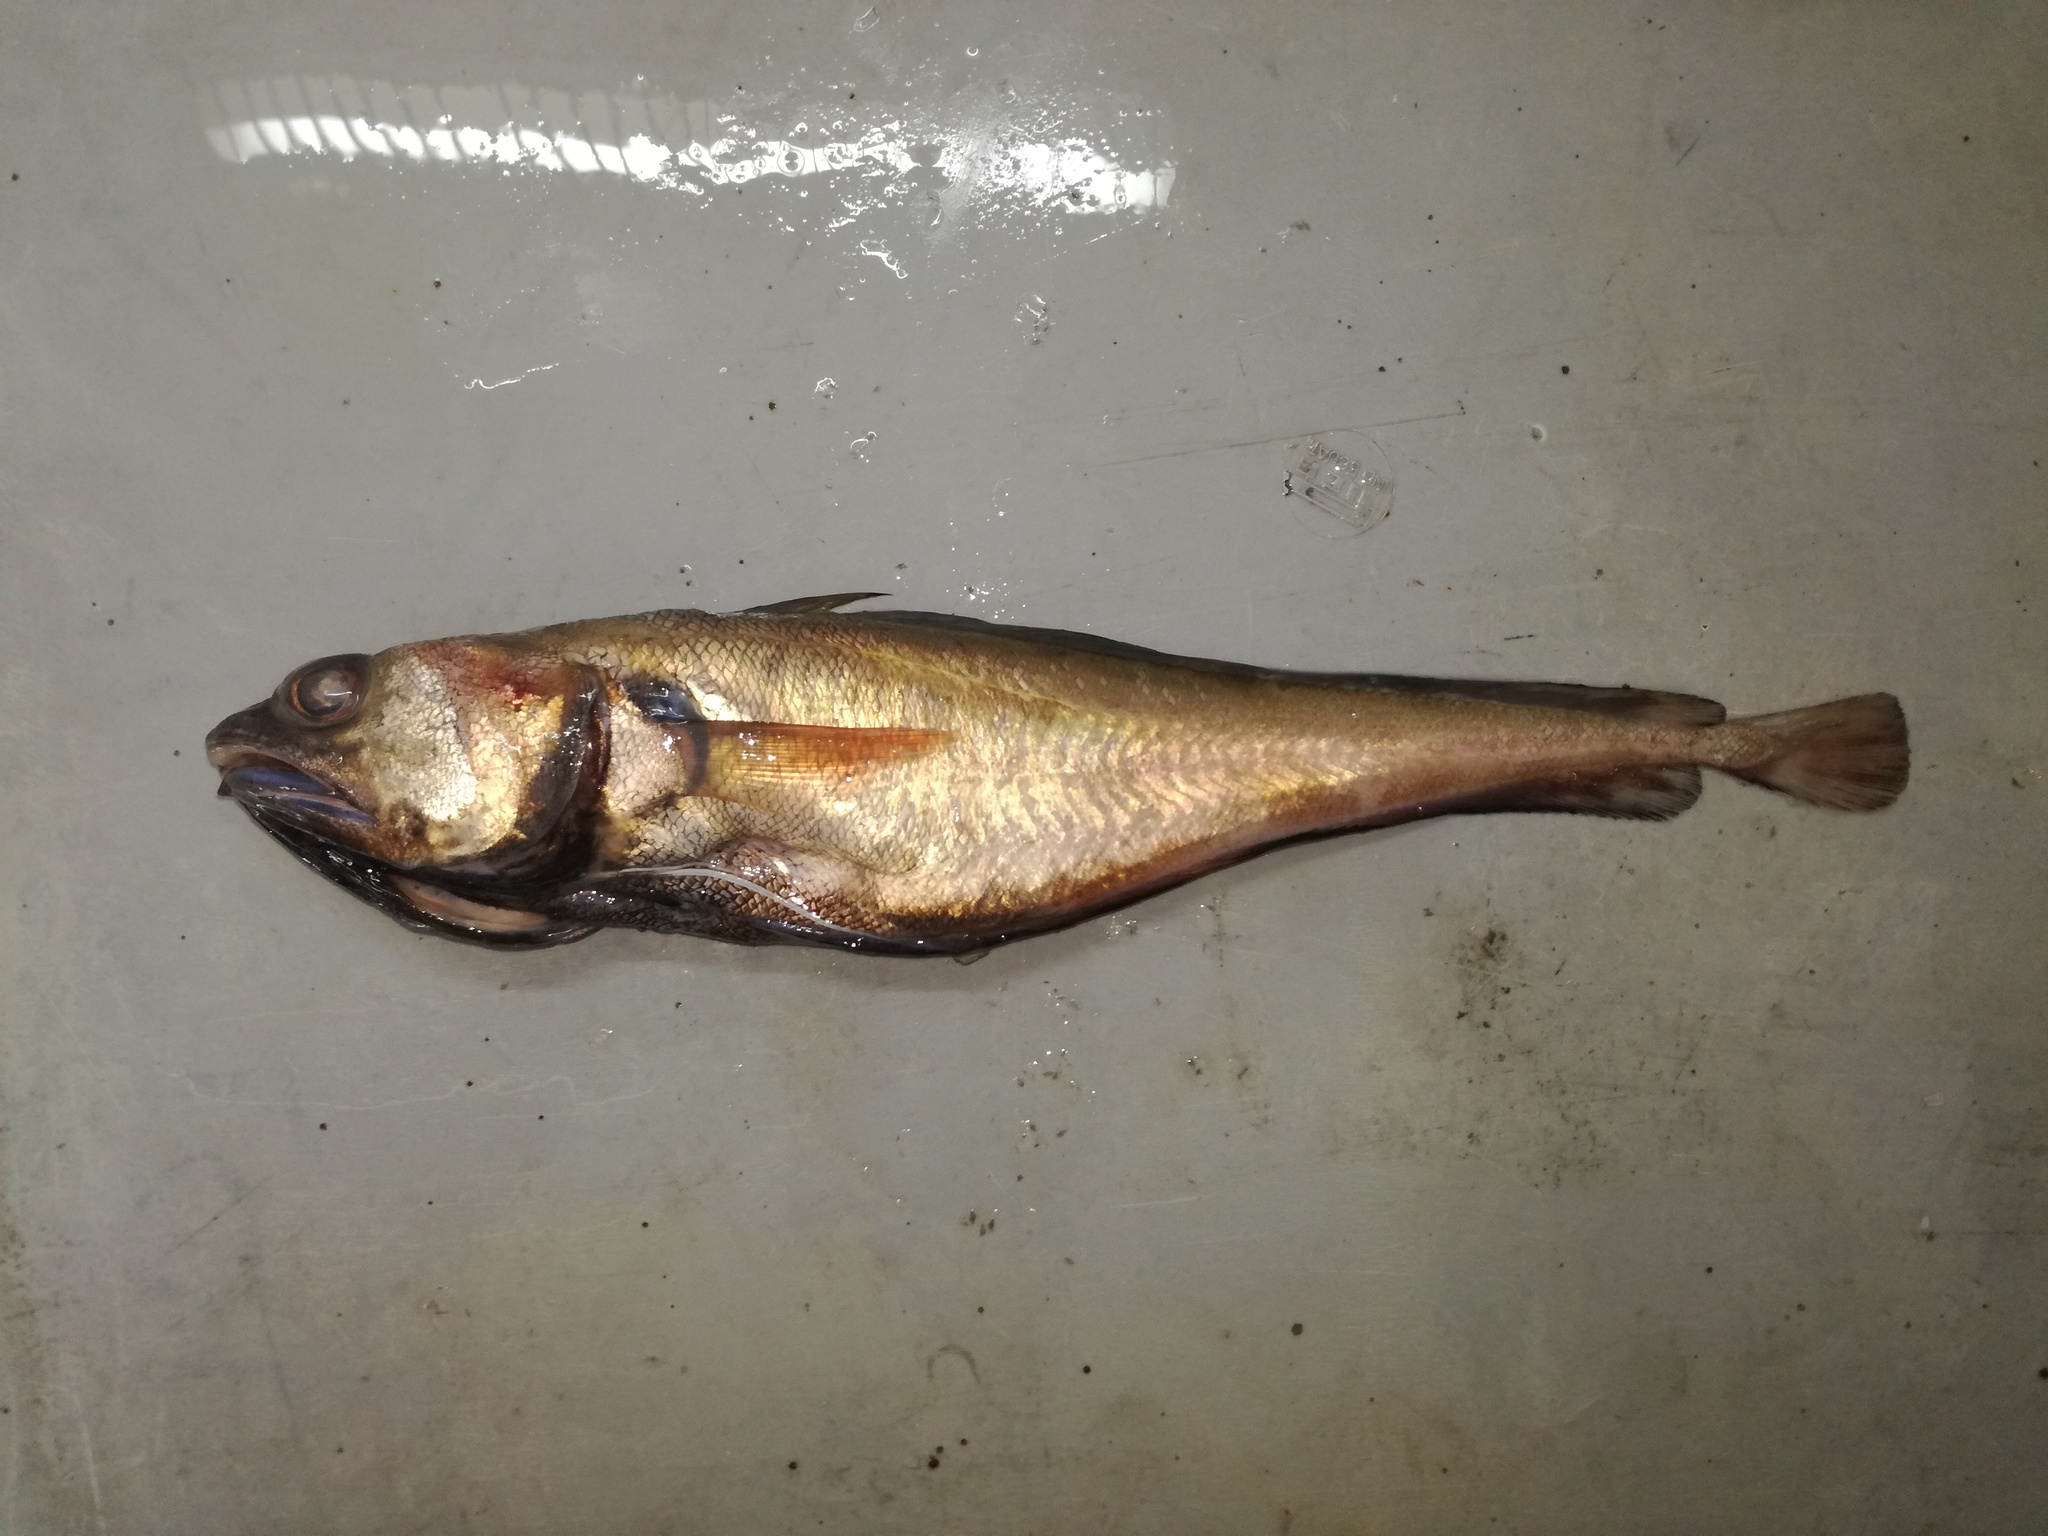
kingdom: Animalia
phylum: Chordata
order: Gadiformes
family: Moridae
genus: Physiculus
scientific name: Physiculus talarae
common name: Morid
